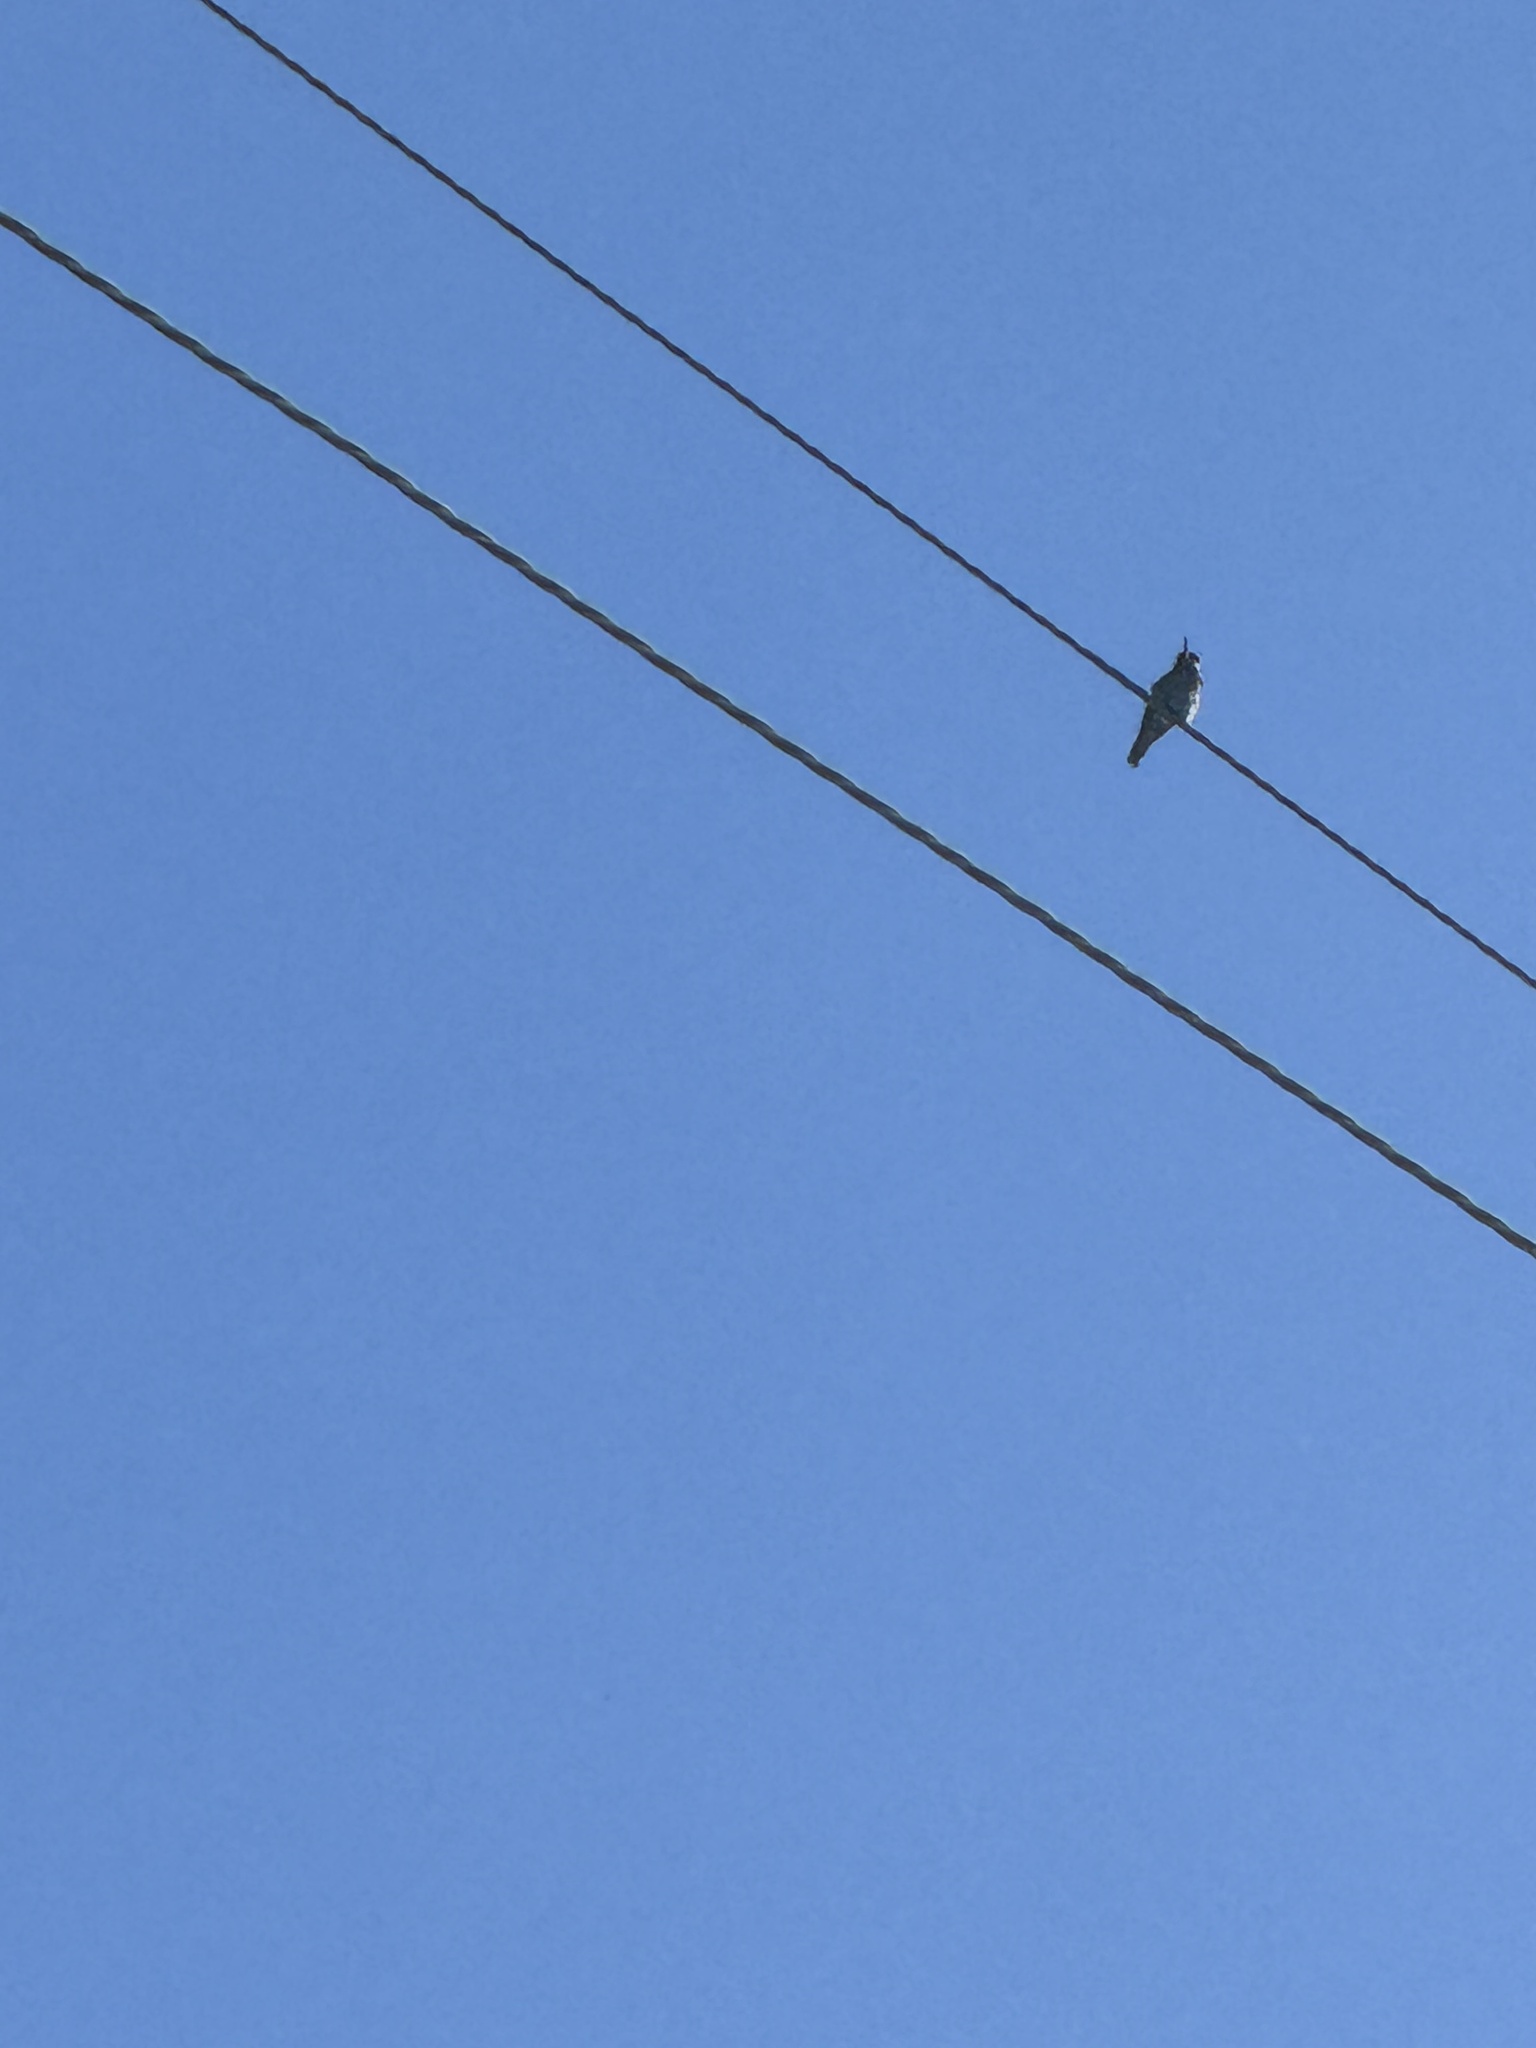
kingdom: Animalia
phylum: Chordata
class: Aves
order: Apodiformes
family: Trochilidae
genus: Calypte
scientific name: Calypte anna
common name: Anna's hummingbird
